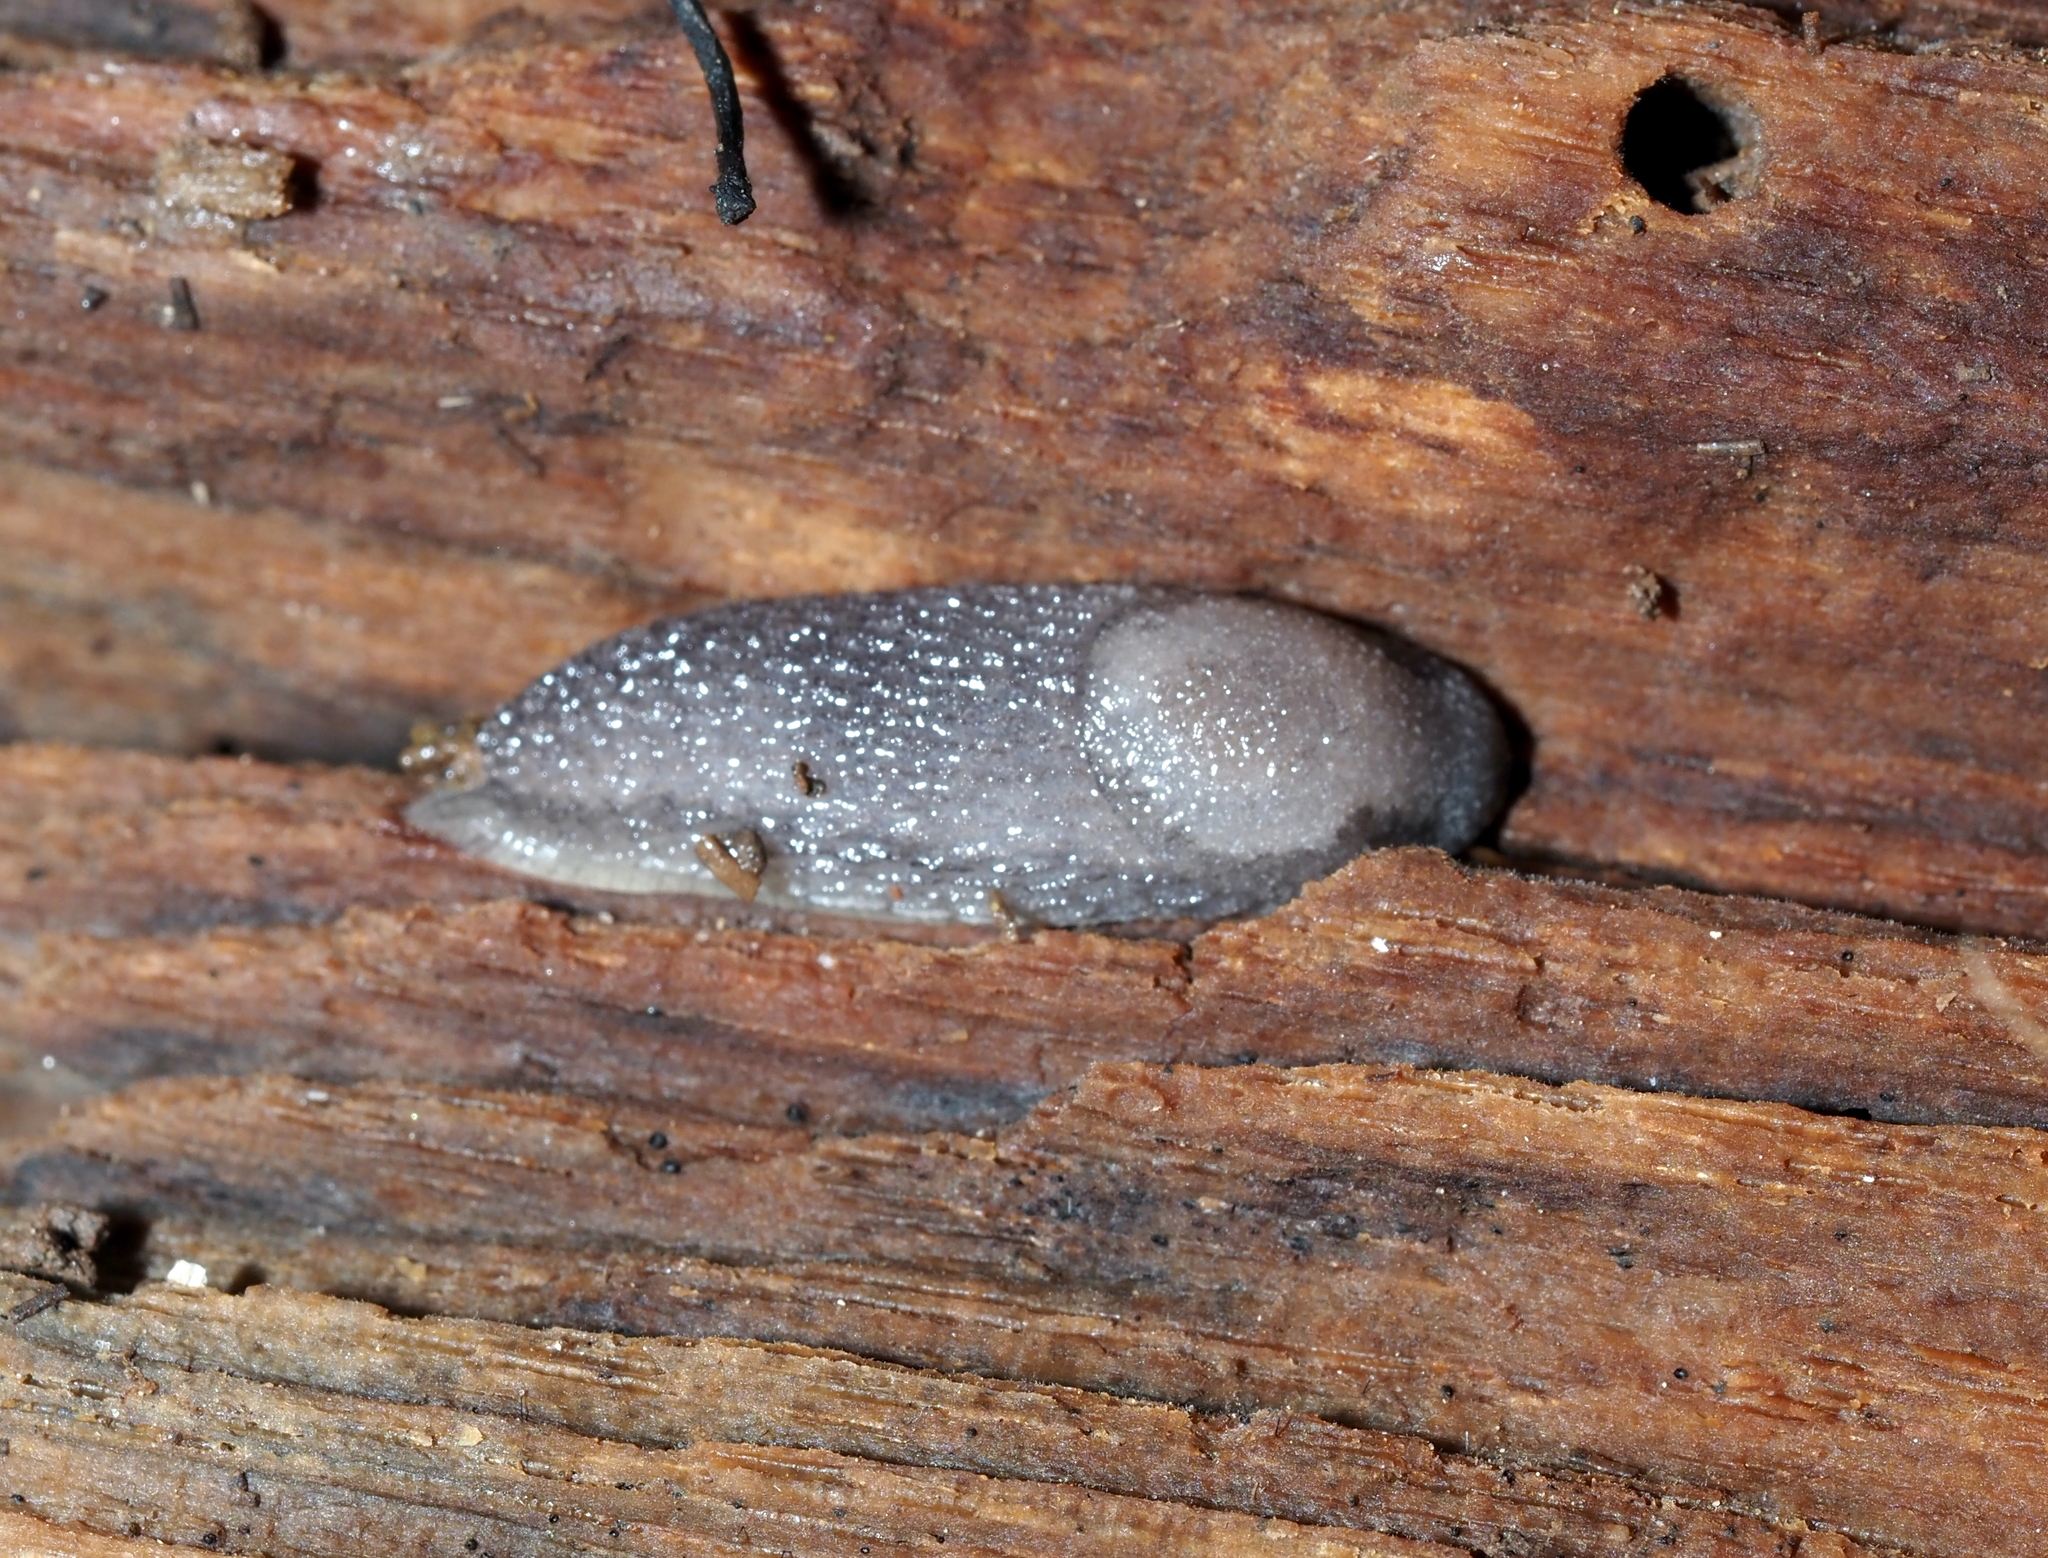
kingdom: Animalia
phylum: Mollusca
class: Gastropoda
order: Stylommatophora
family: Arionidae
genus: Arion
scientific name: Arion intermedius
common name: Hedgehog slug
